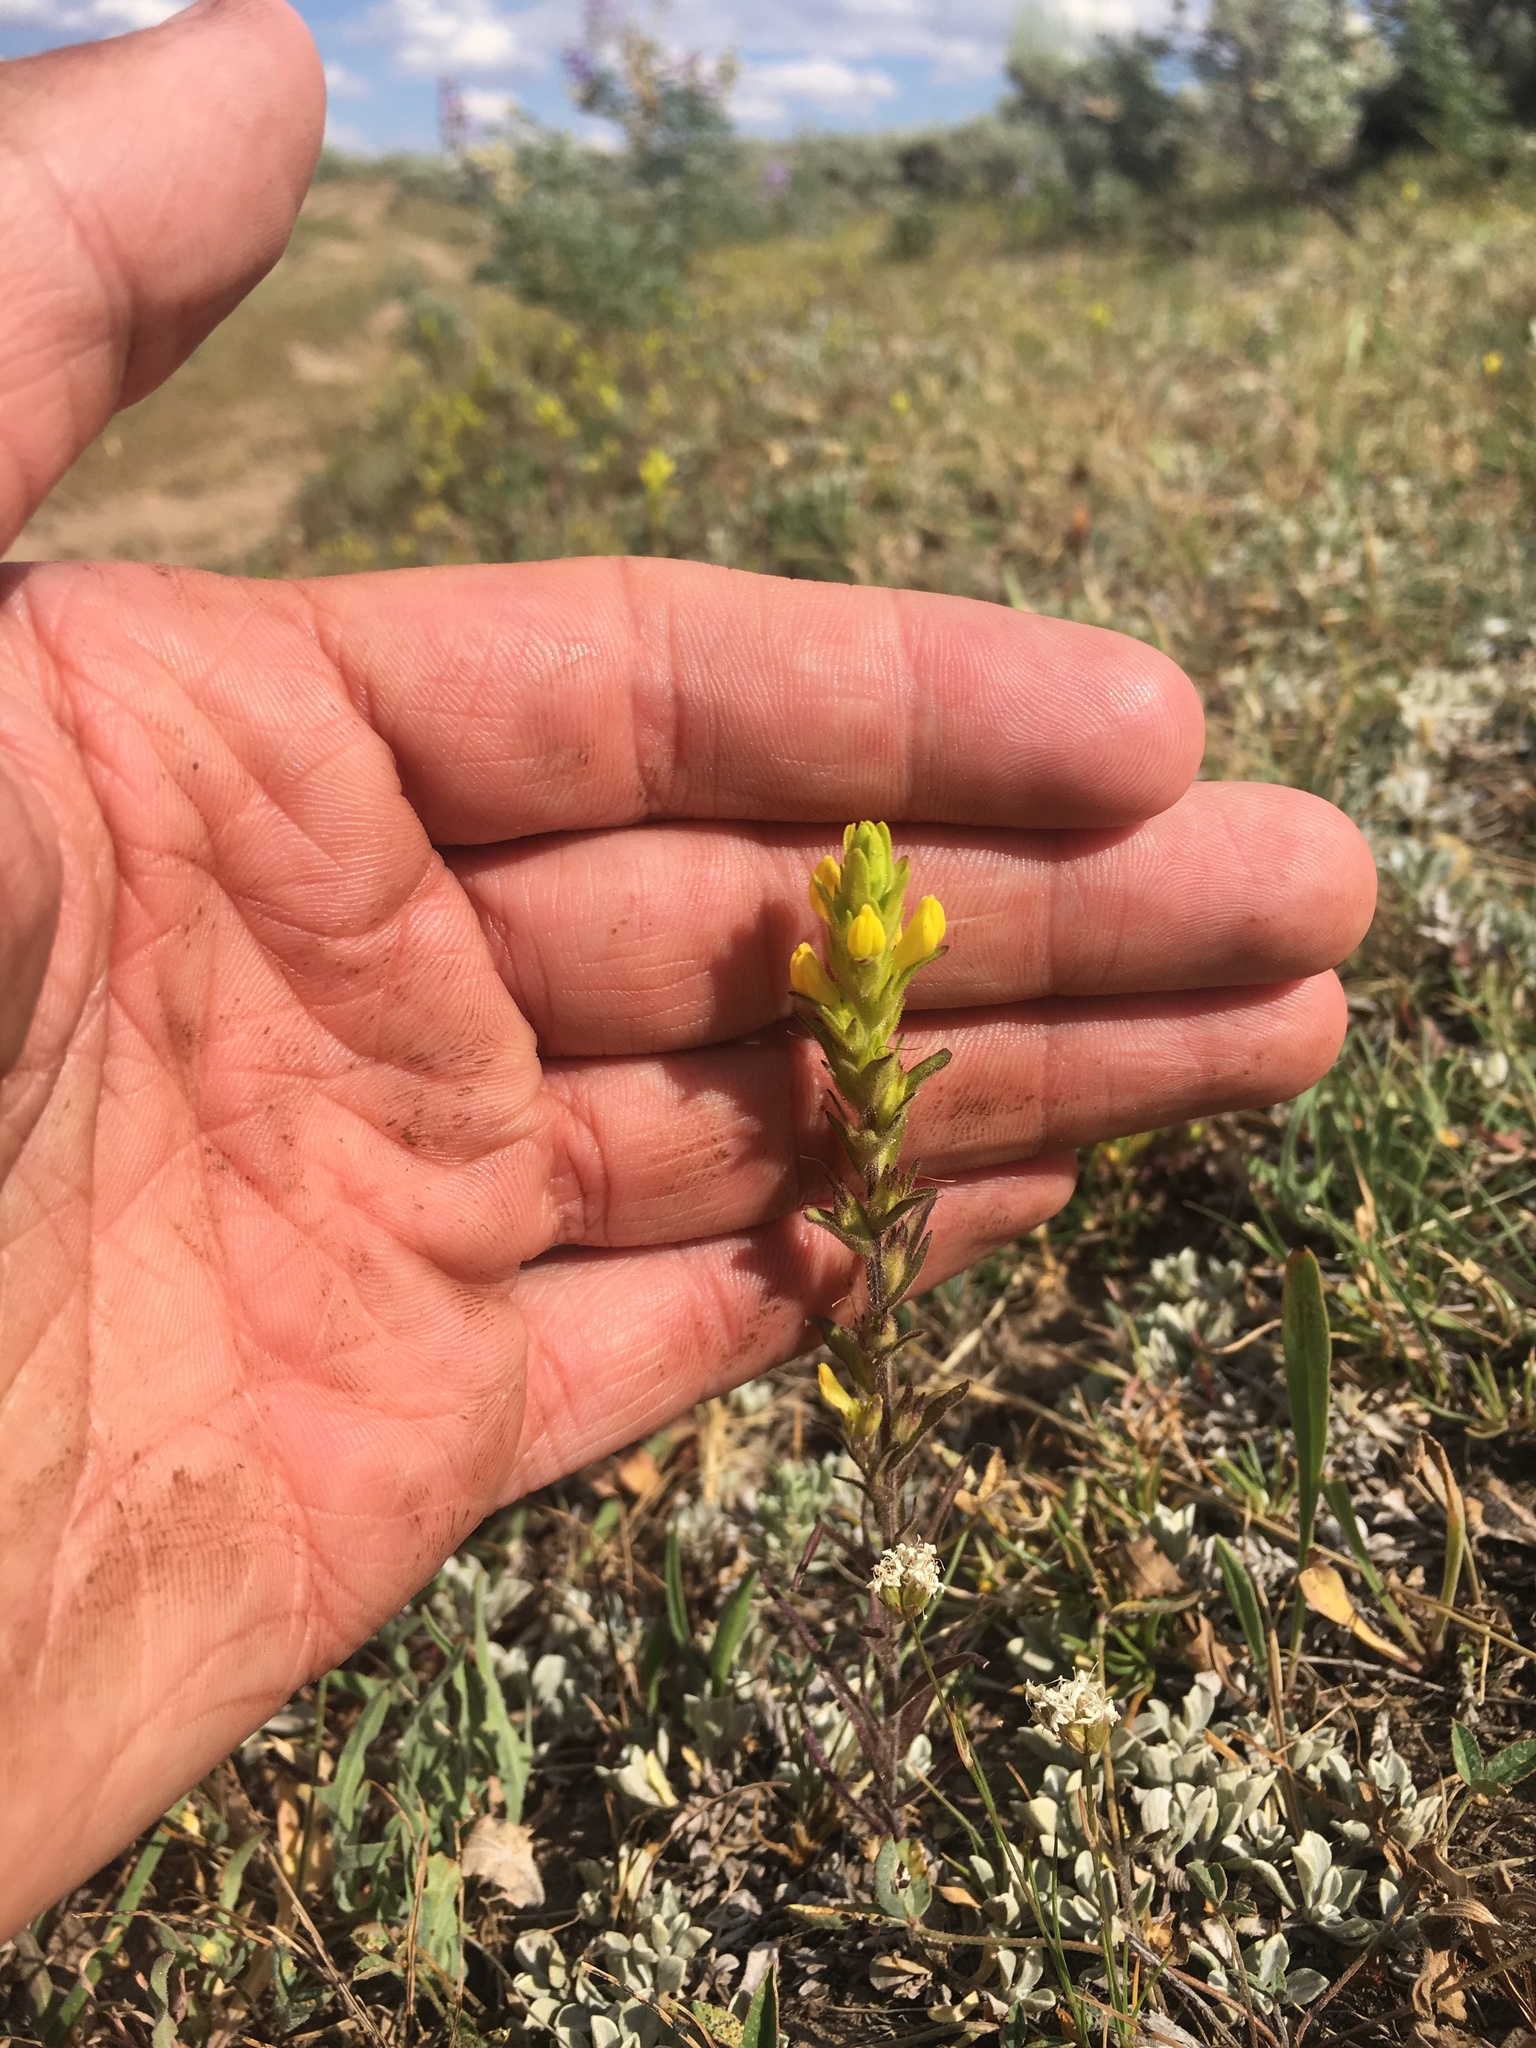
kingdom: Plantae
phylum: Tracheophyta
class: Magnoliopsida
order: Lamiales
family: Orobanchaceae
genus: Orthocarpus
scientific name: Orthocarpus luteus
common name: Golden-tongue owl's-clover
